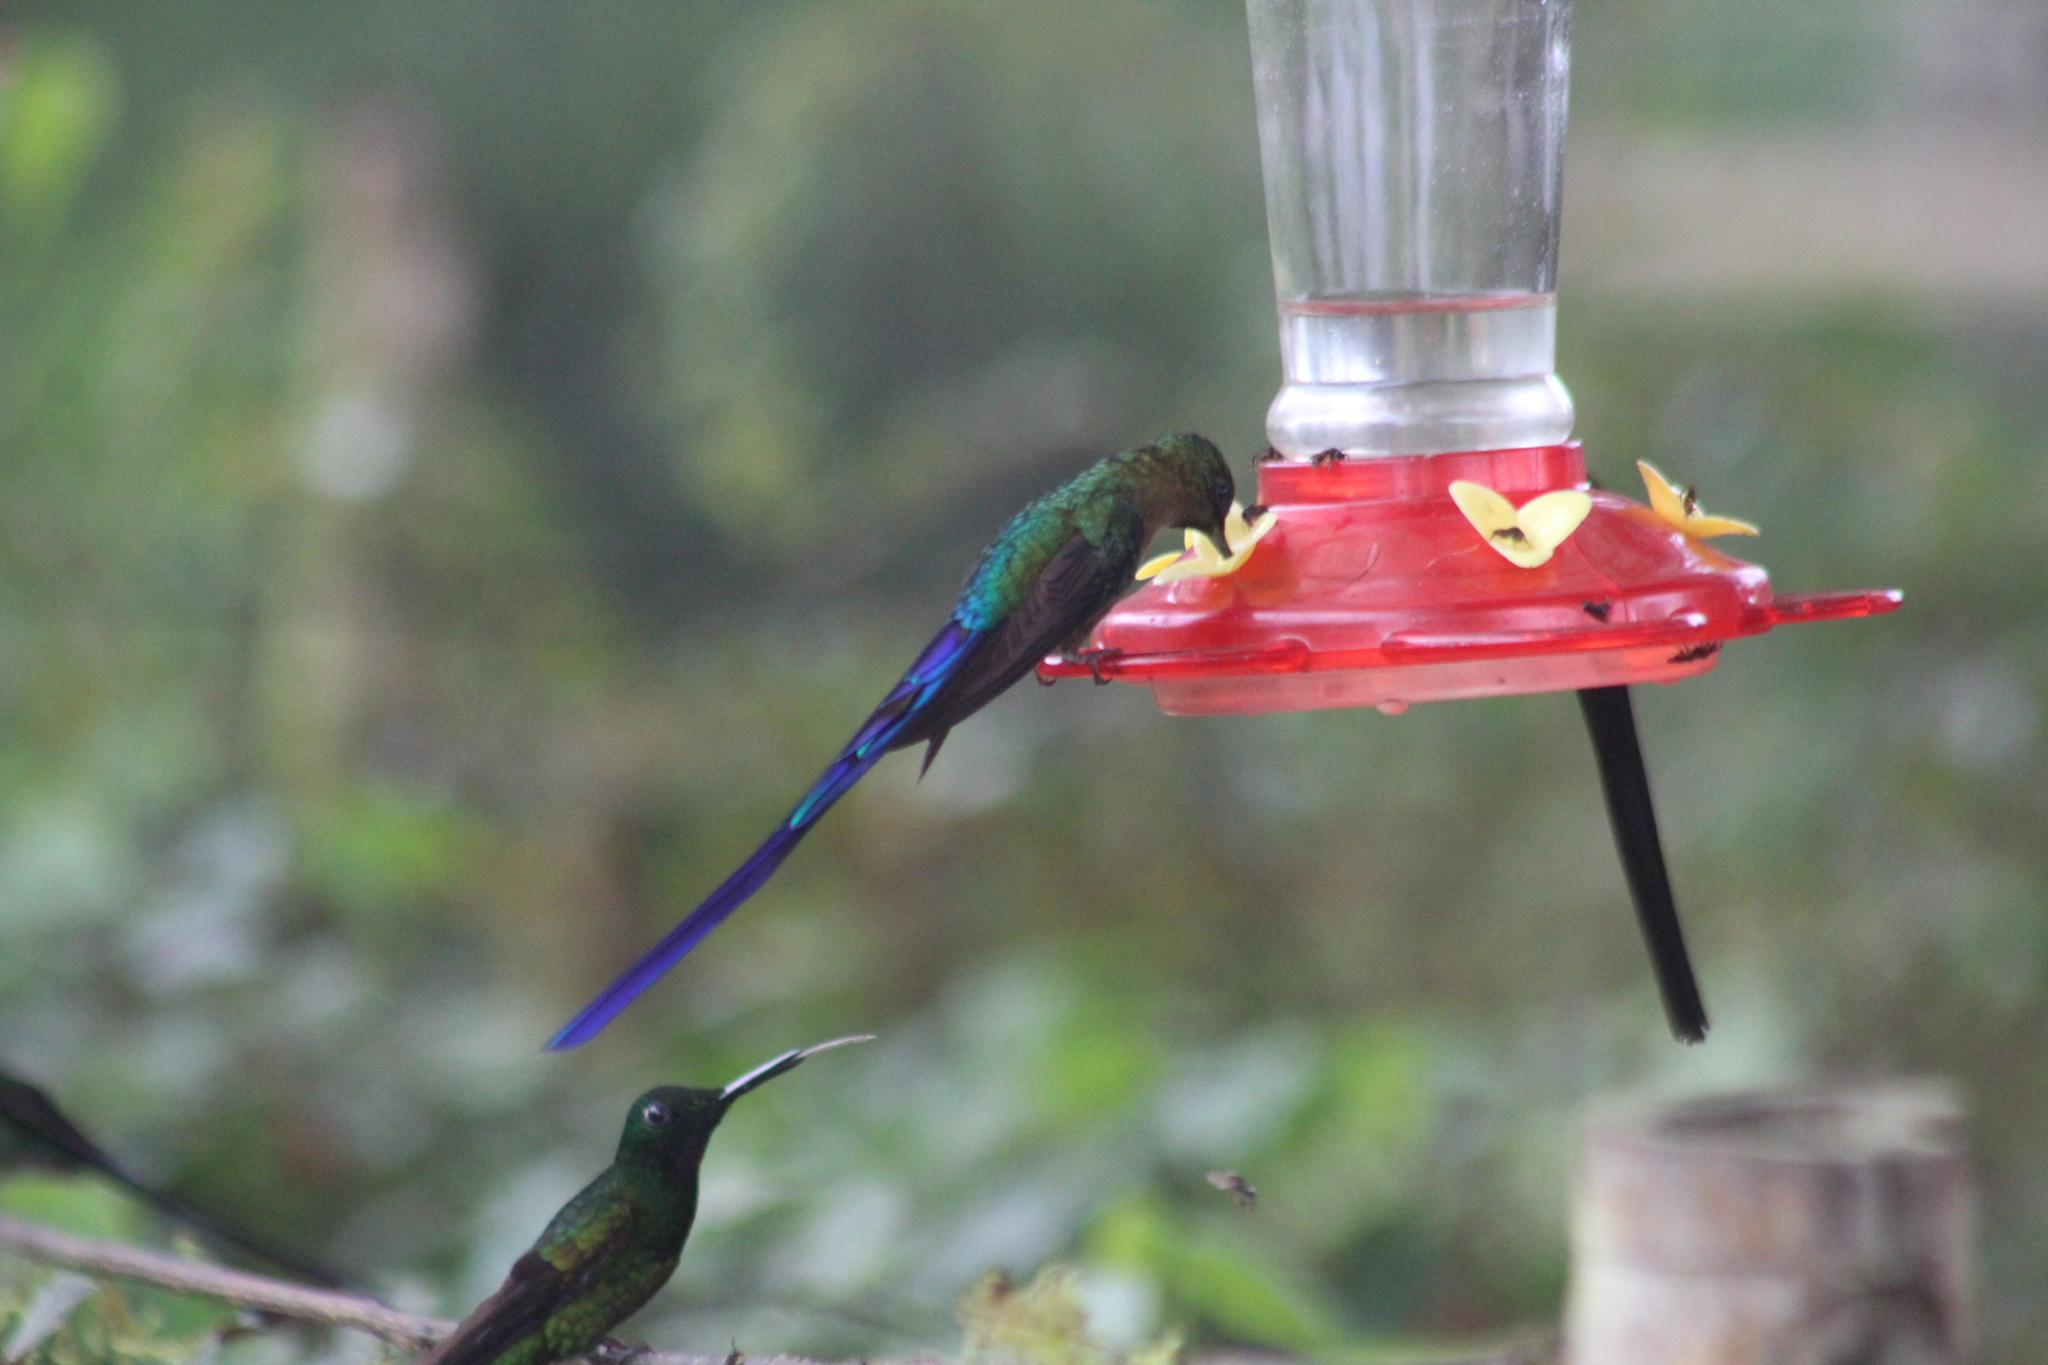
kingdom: Animalia
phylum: Chordata
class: Aves
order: Apodiformes
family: Trochilidae
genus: Aglaiocercus
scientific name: Aglaiocercus coelestis
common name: Violet-tailed sylph
